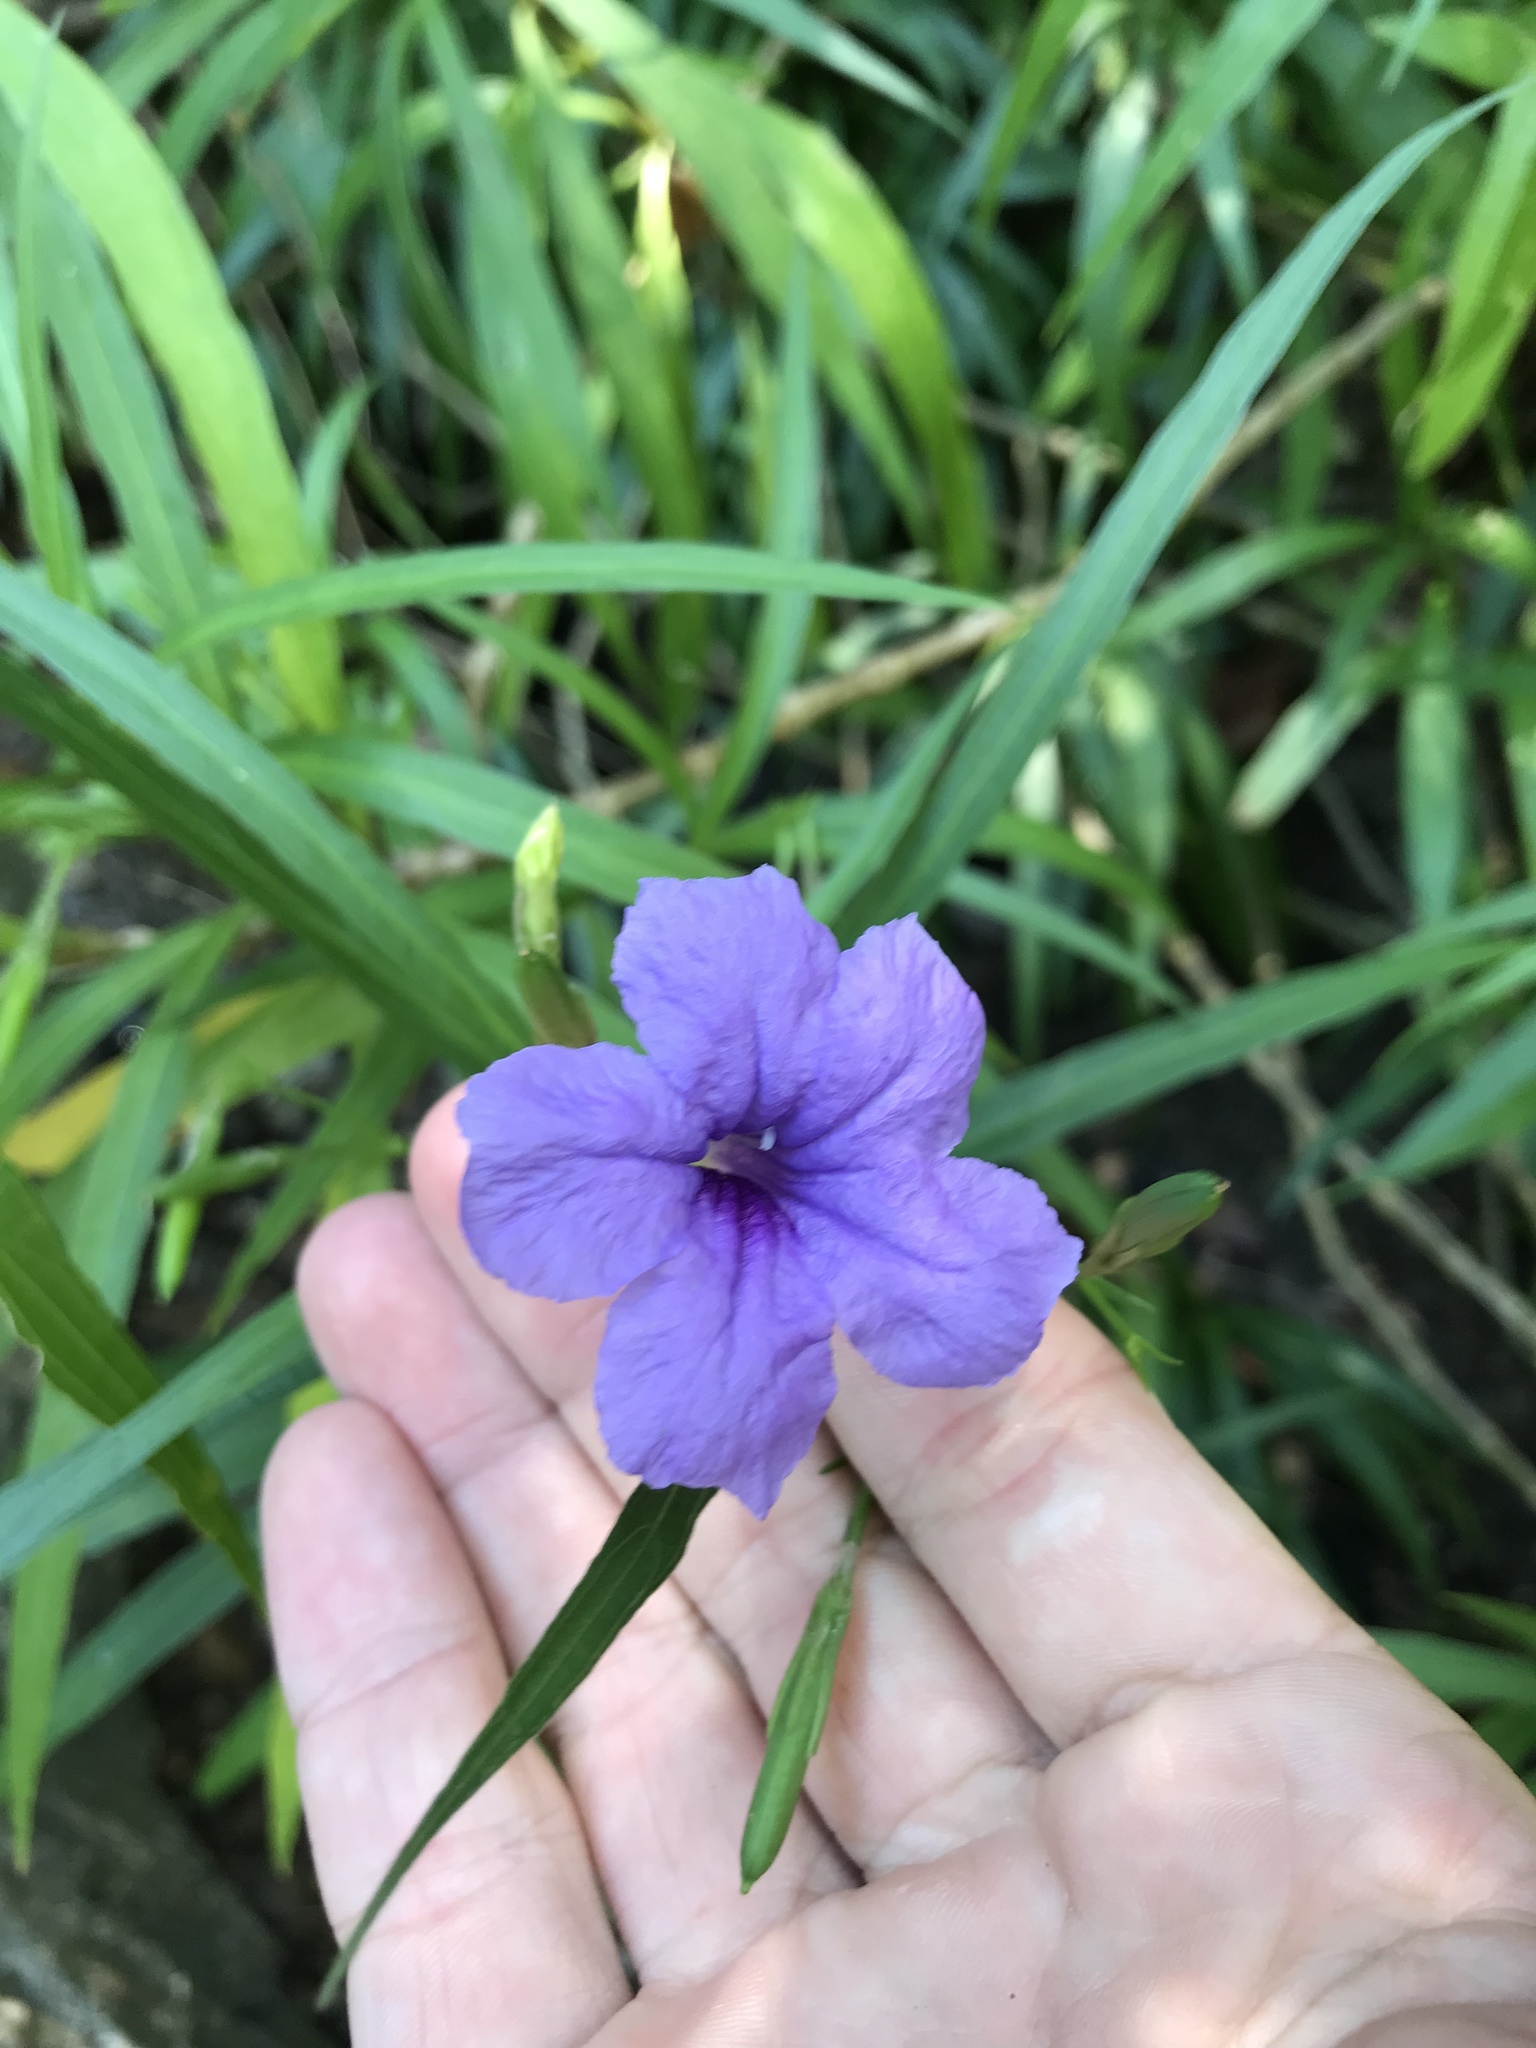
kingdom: Plantae
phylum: Tracheophyta
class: Magnoliopsida
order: Lamiales
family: Acanthaceae
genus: Ruellia
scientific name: Ruellia simplex
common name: Softseed wild petunia
